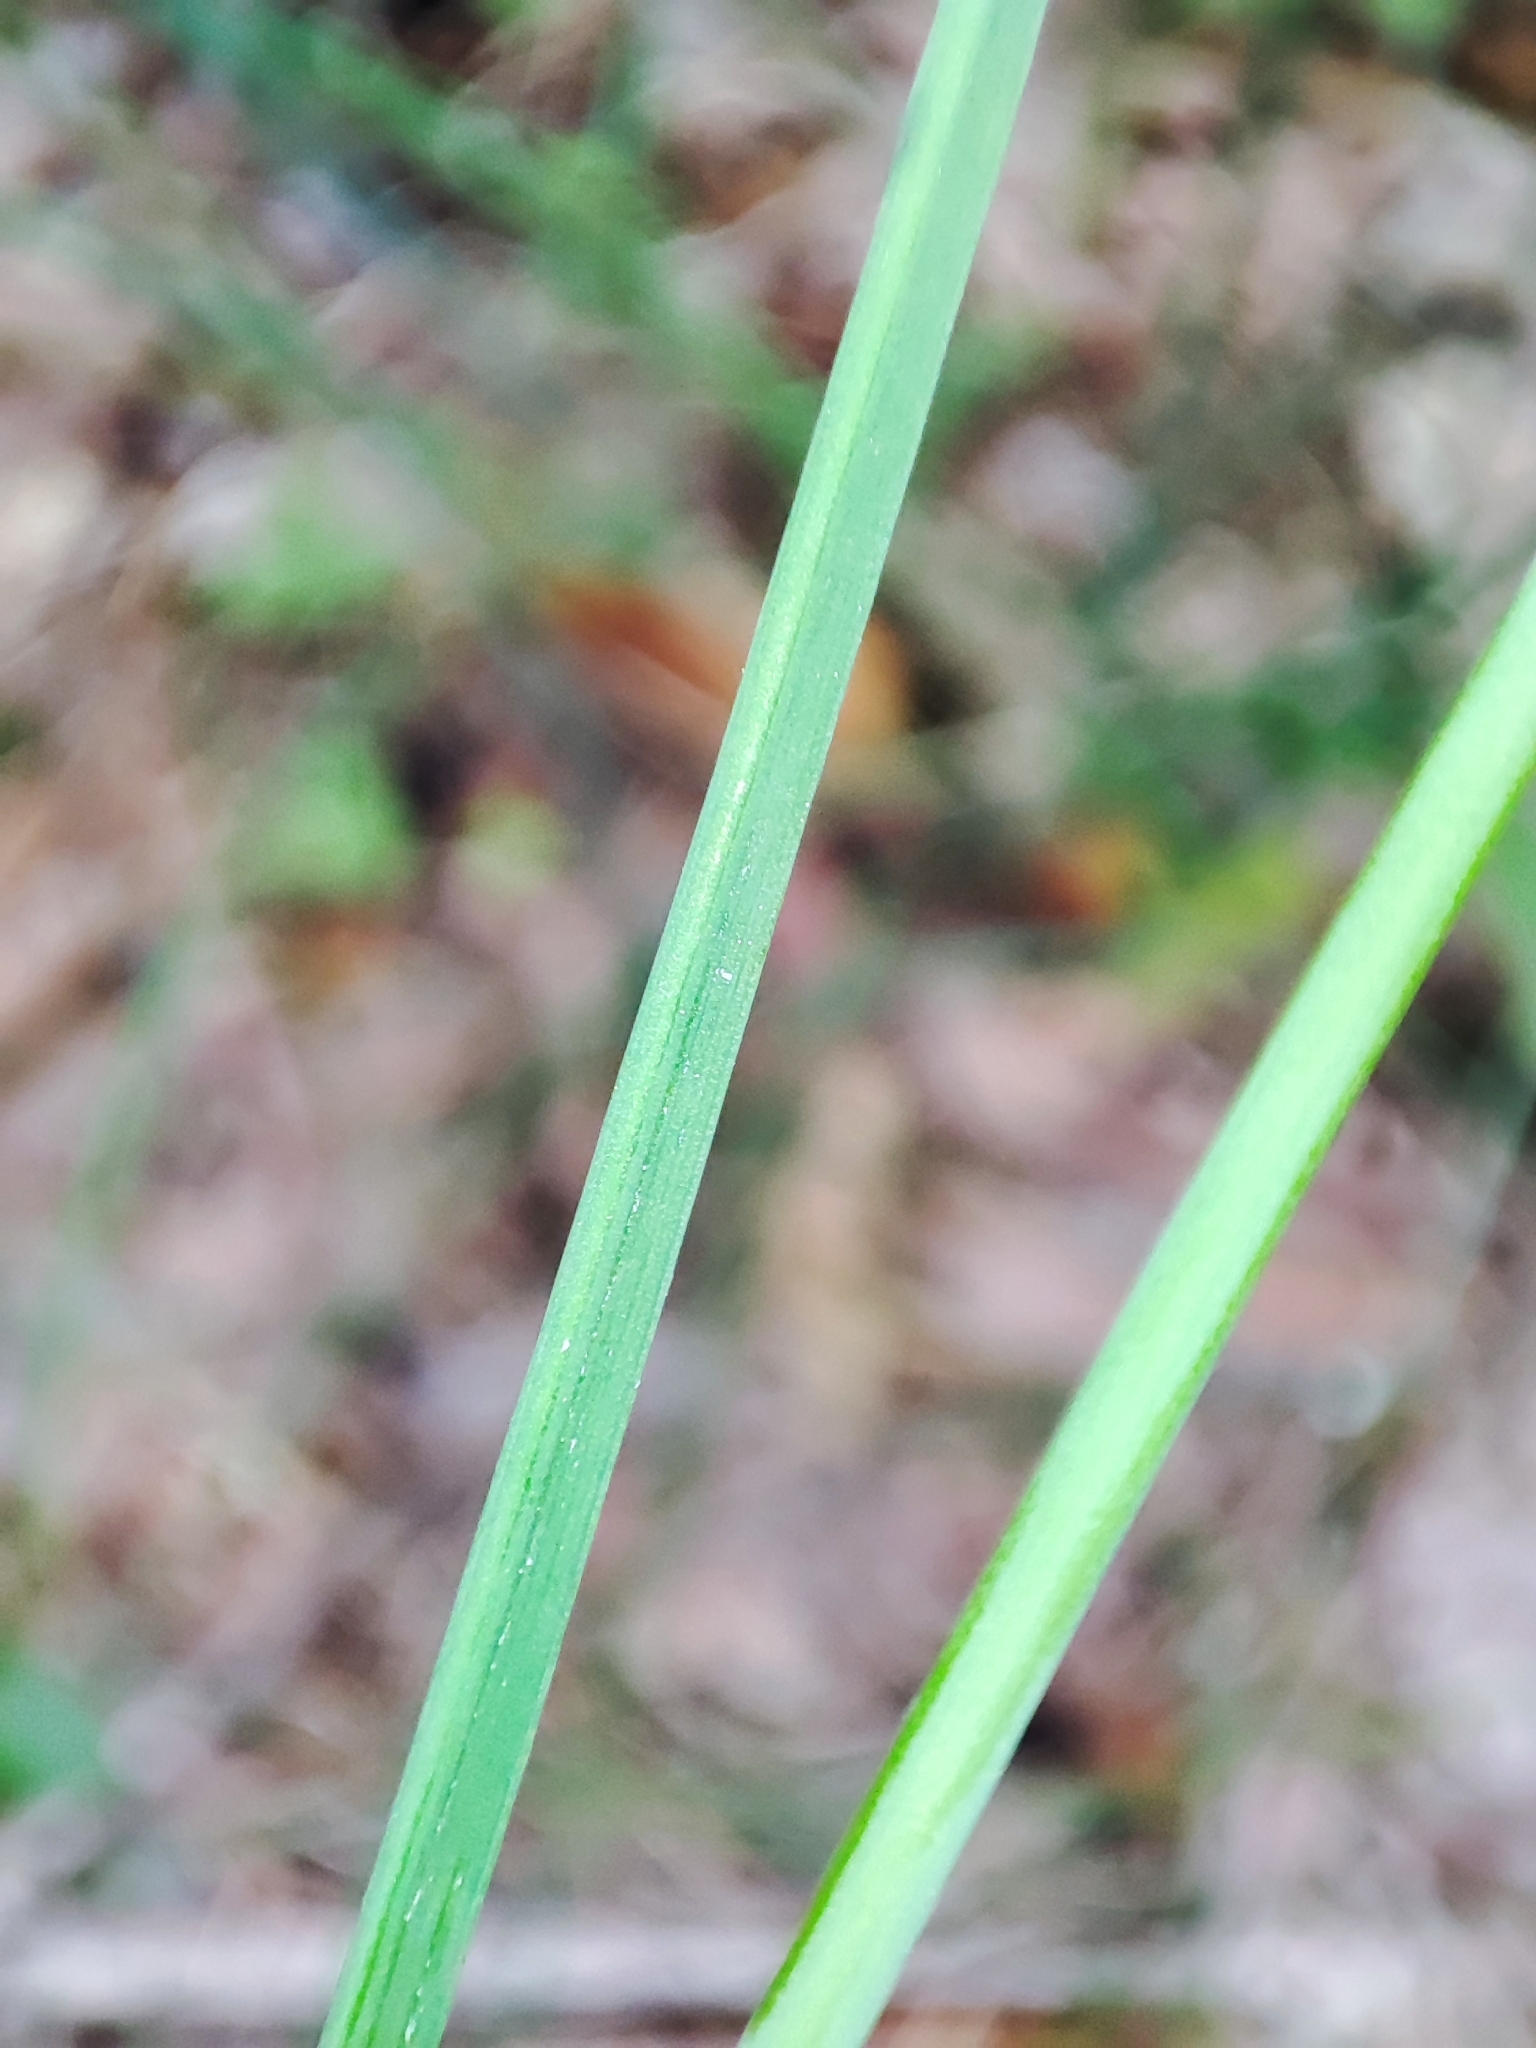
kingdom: Plantae
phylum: Tracheophyta
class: Liliopsida
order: Asparagales
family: Amaryllidaceae
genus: Allium
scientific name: Allium schoenoprasum
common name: Chives
